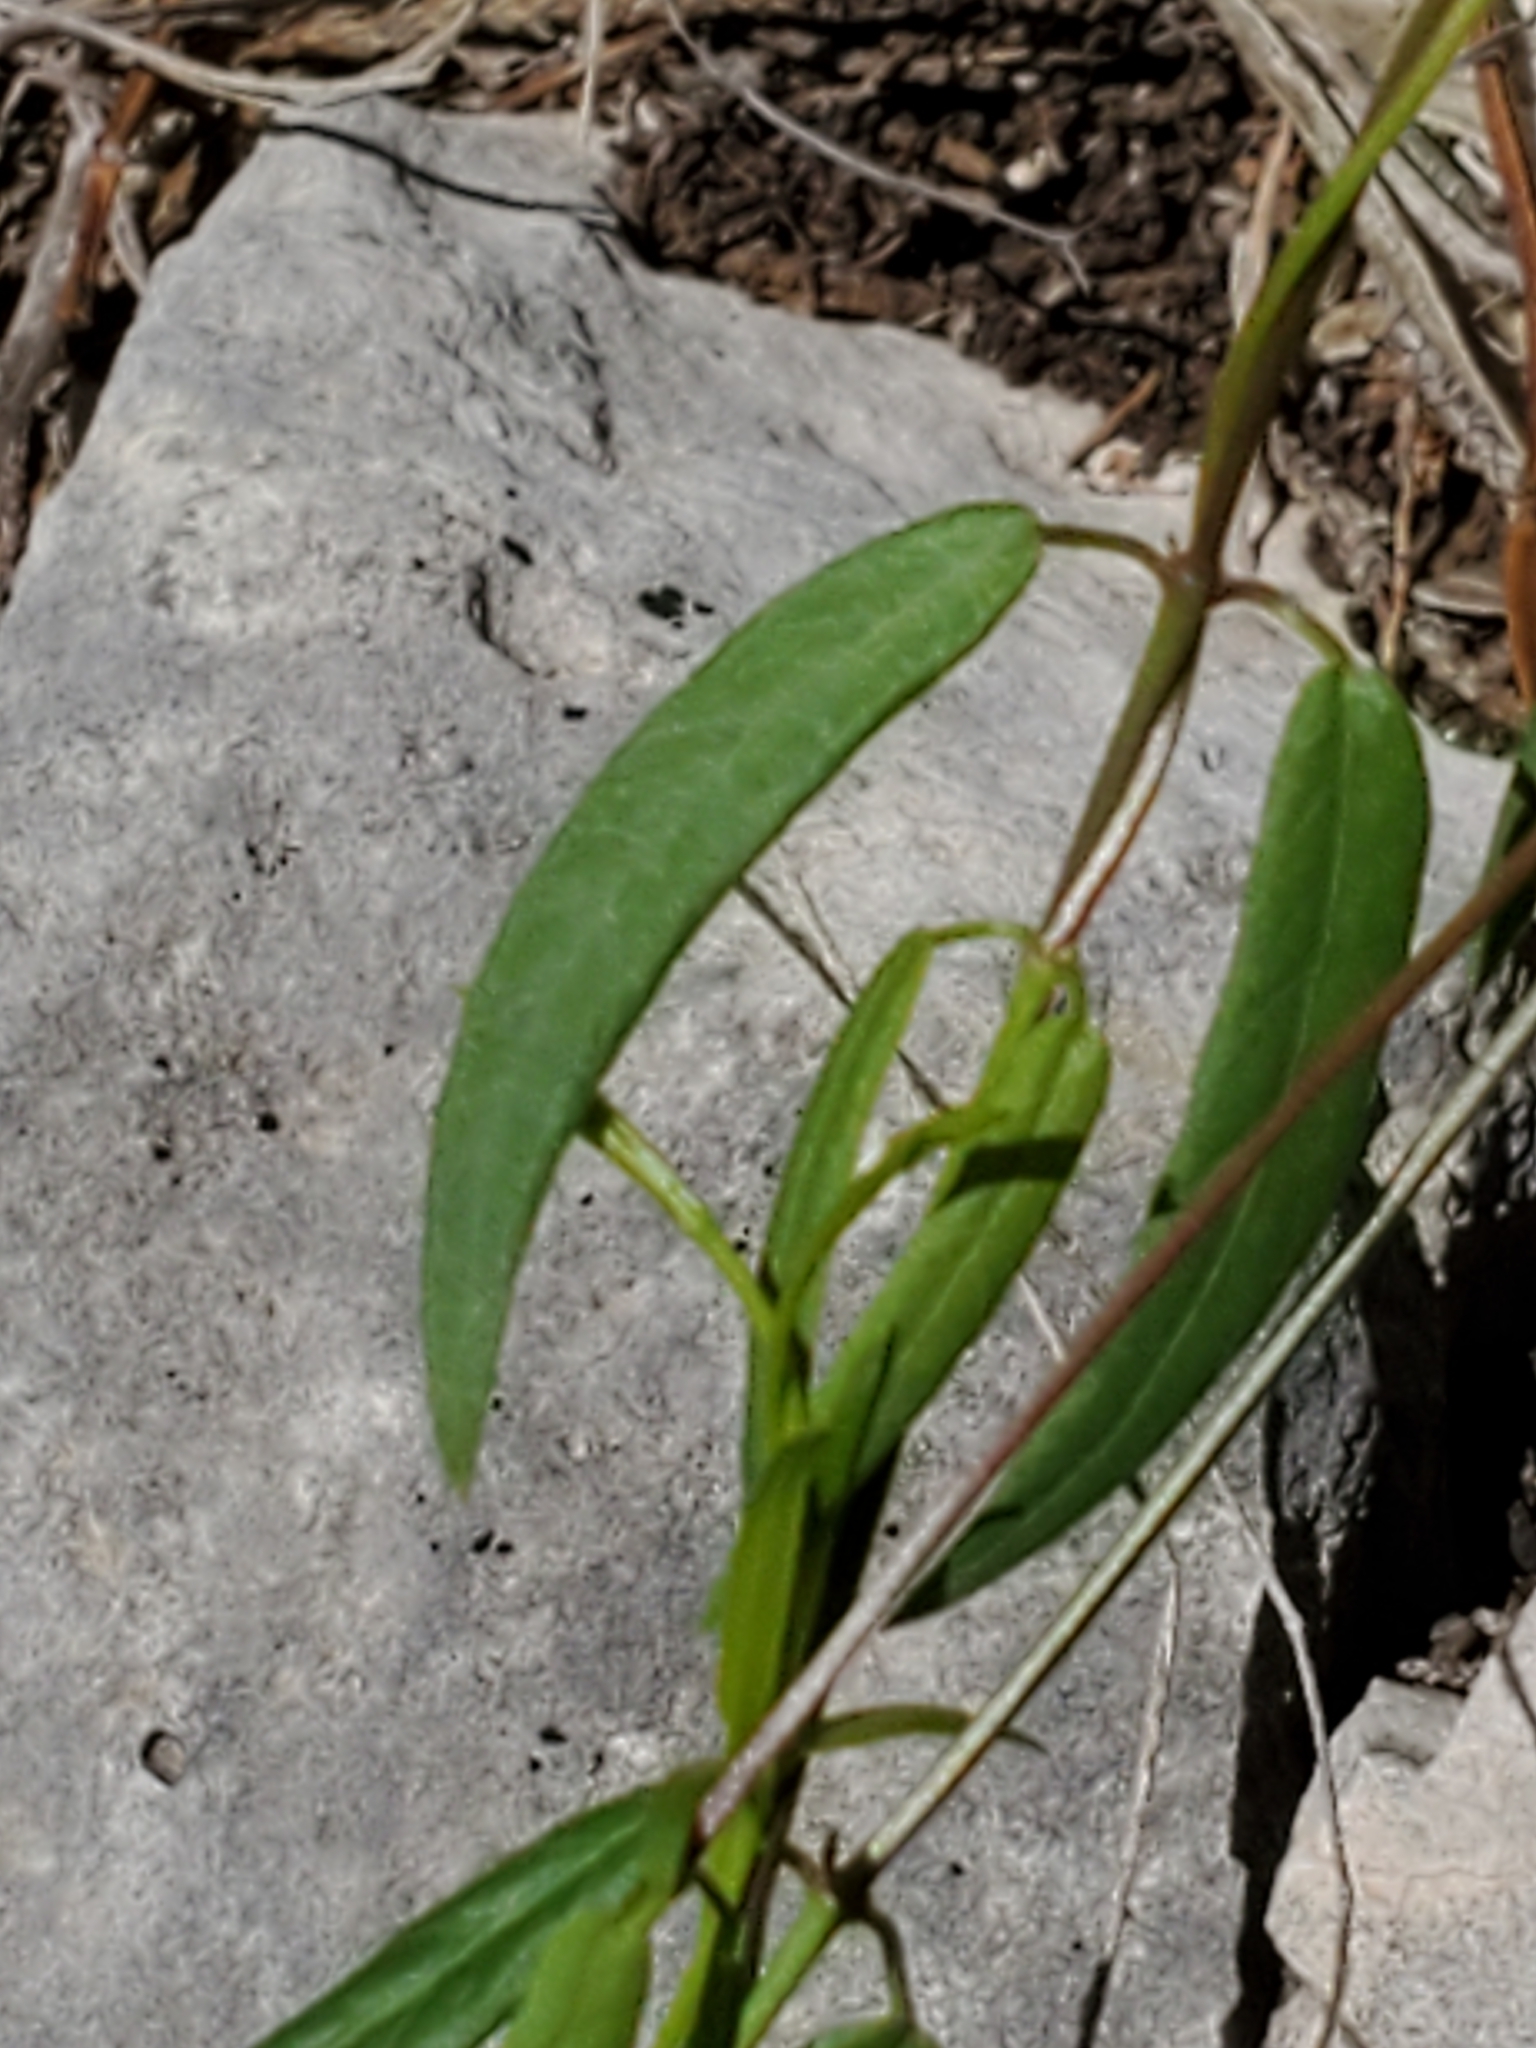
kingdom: Plantae
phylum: Tracheophyta
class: Magnoliopsida
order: Gentianales
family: Apocynaceae
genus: Metastelma
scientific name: Metastelma barbigerum
